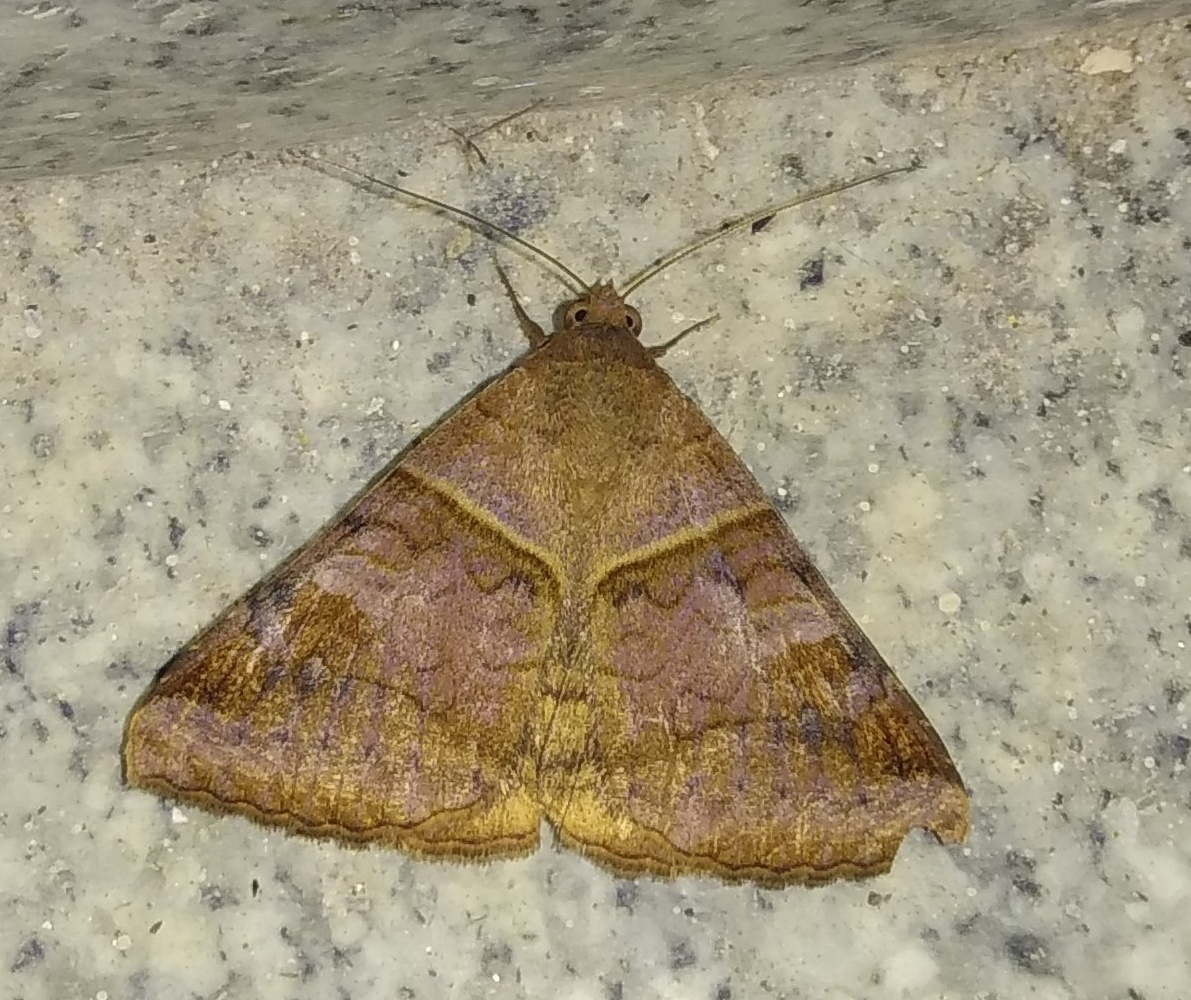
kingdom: Animalia
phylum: Arthropoda
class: Insecta
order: Lepidoptera
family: Erebidae
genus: Mocis
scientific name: Mocis undata
